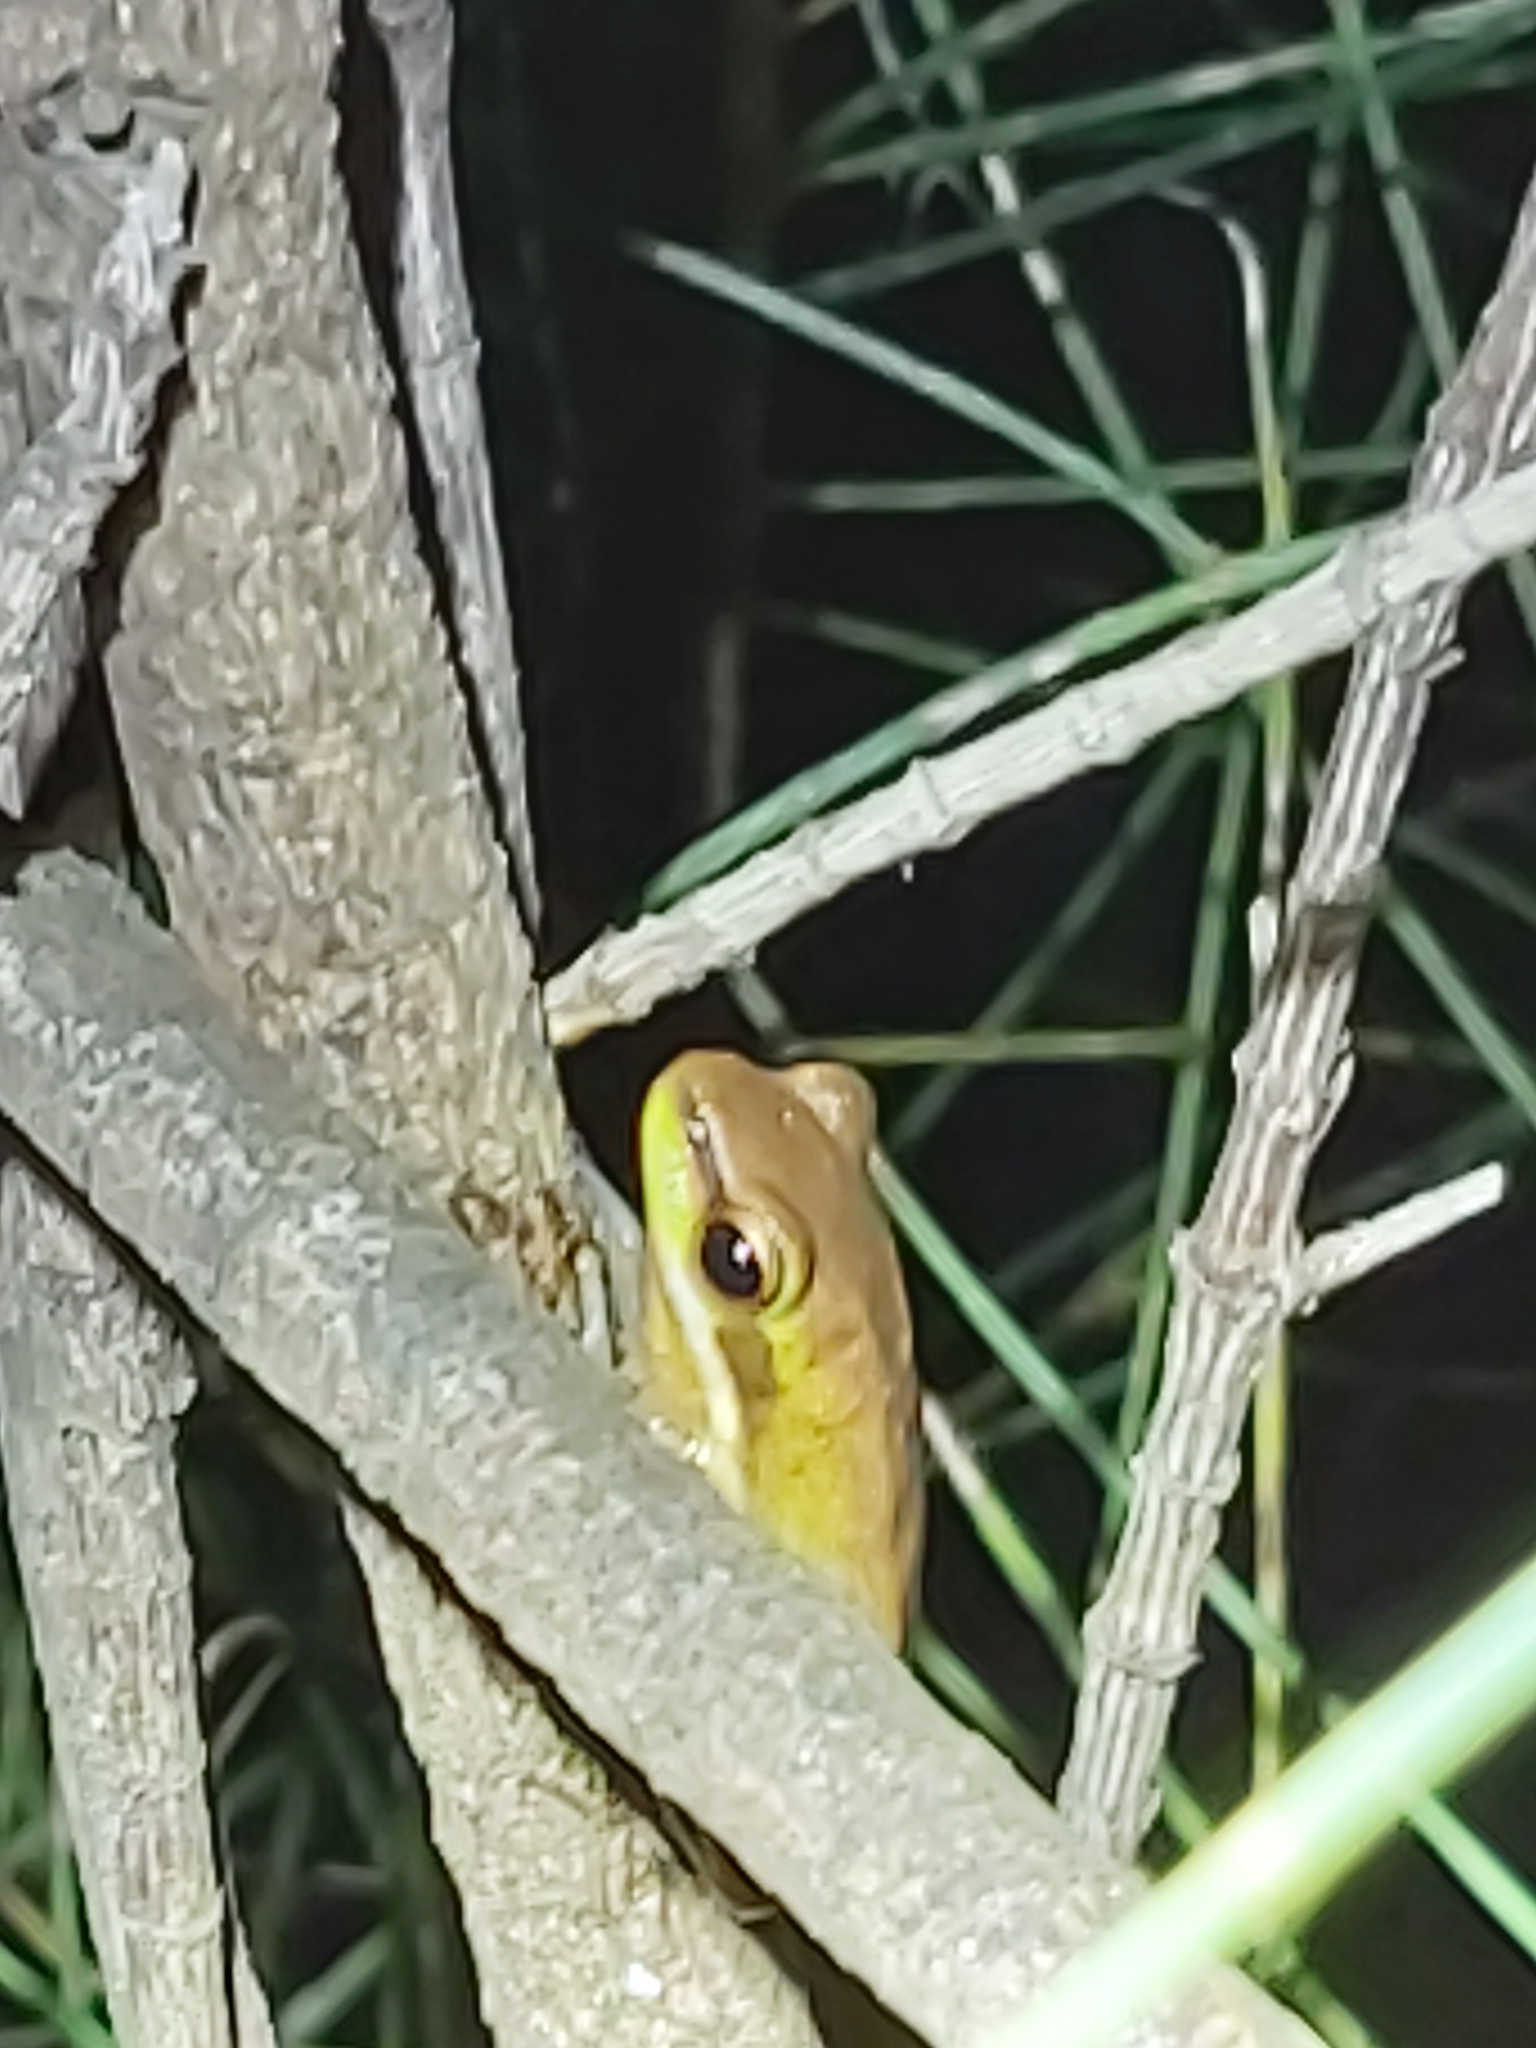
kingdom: Animalia
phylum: Chordata
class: Amphibia
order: Anura
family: Pelodryadidae
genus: Litoria
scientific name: Litoria fallax
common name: Eastern dwarf treefrog
